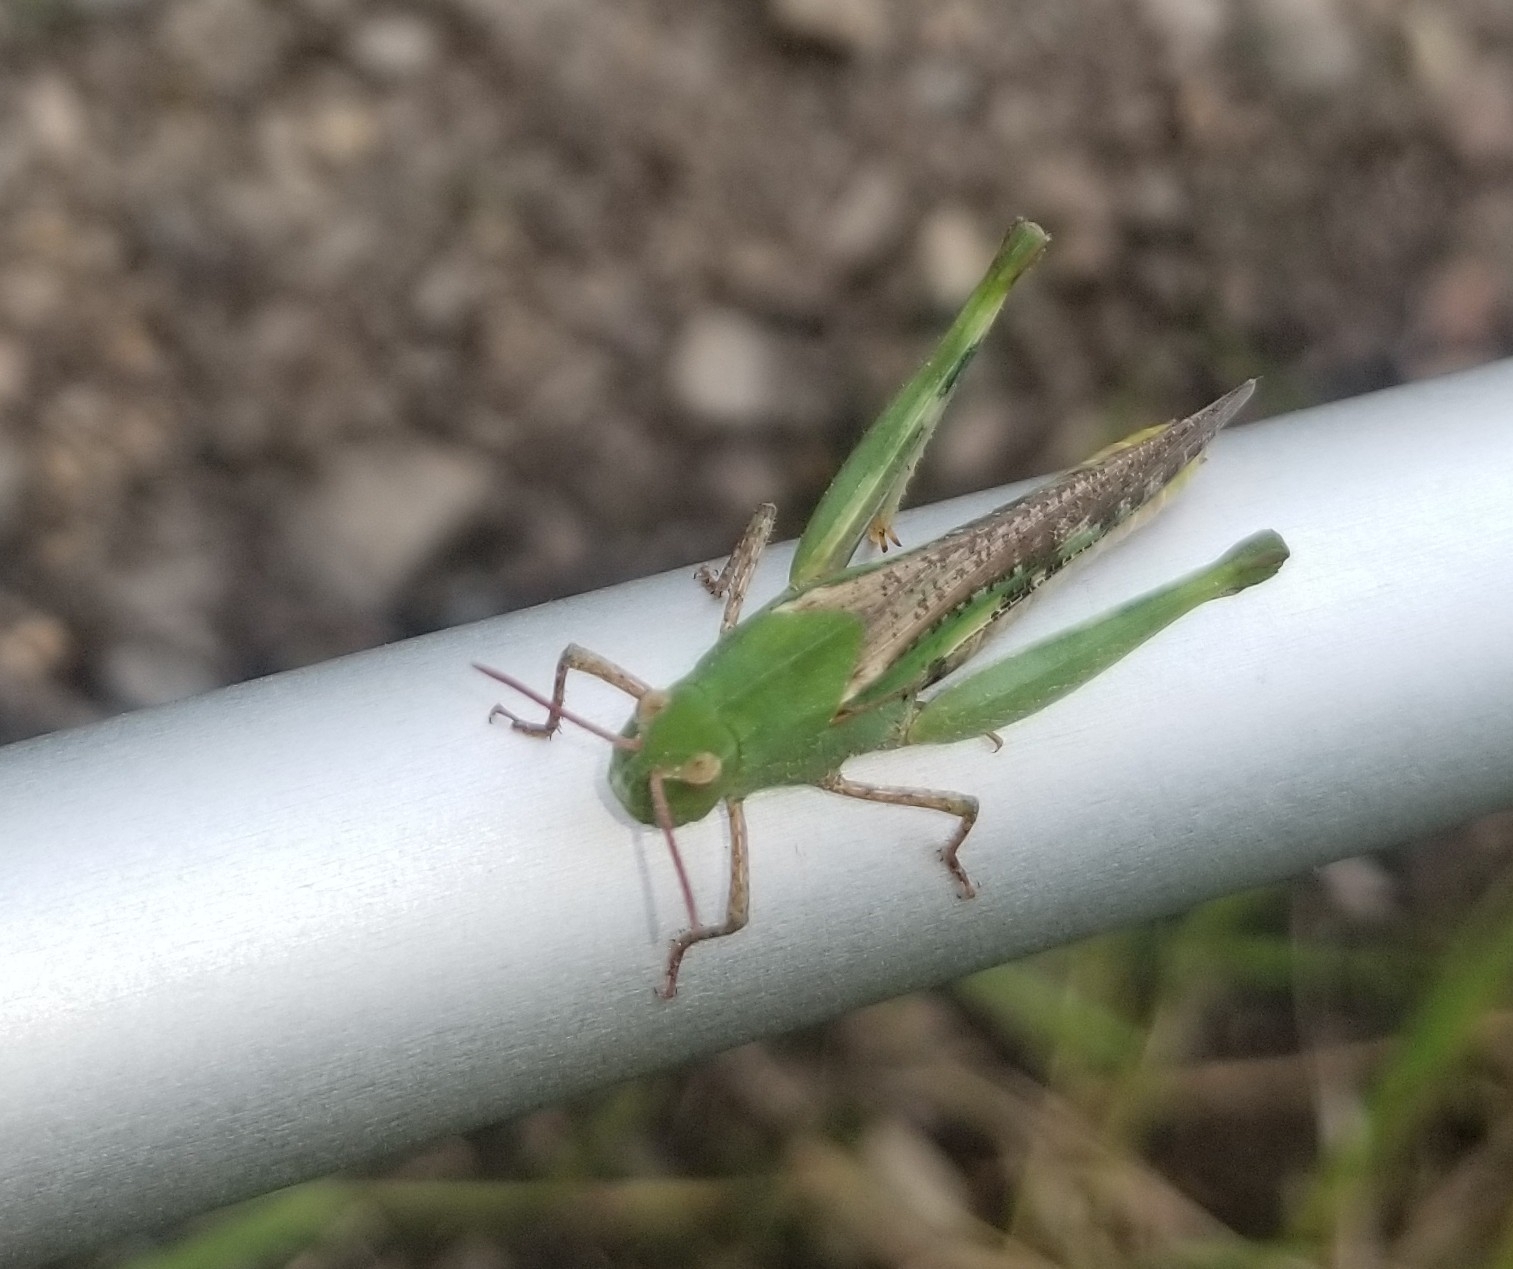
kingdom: Animalia
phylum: Arthropoda
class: Insecta
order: Orthoptera
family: Acrididae
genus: Chortophaga
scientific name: Chortophaga viridifasciata
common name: Green-striped grasshopper
